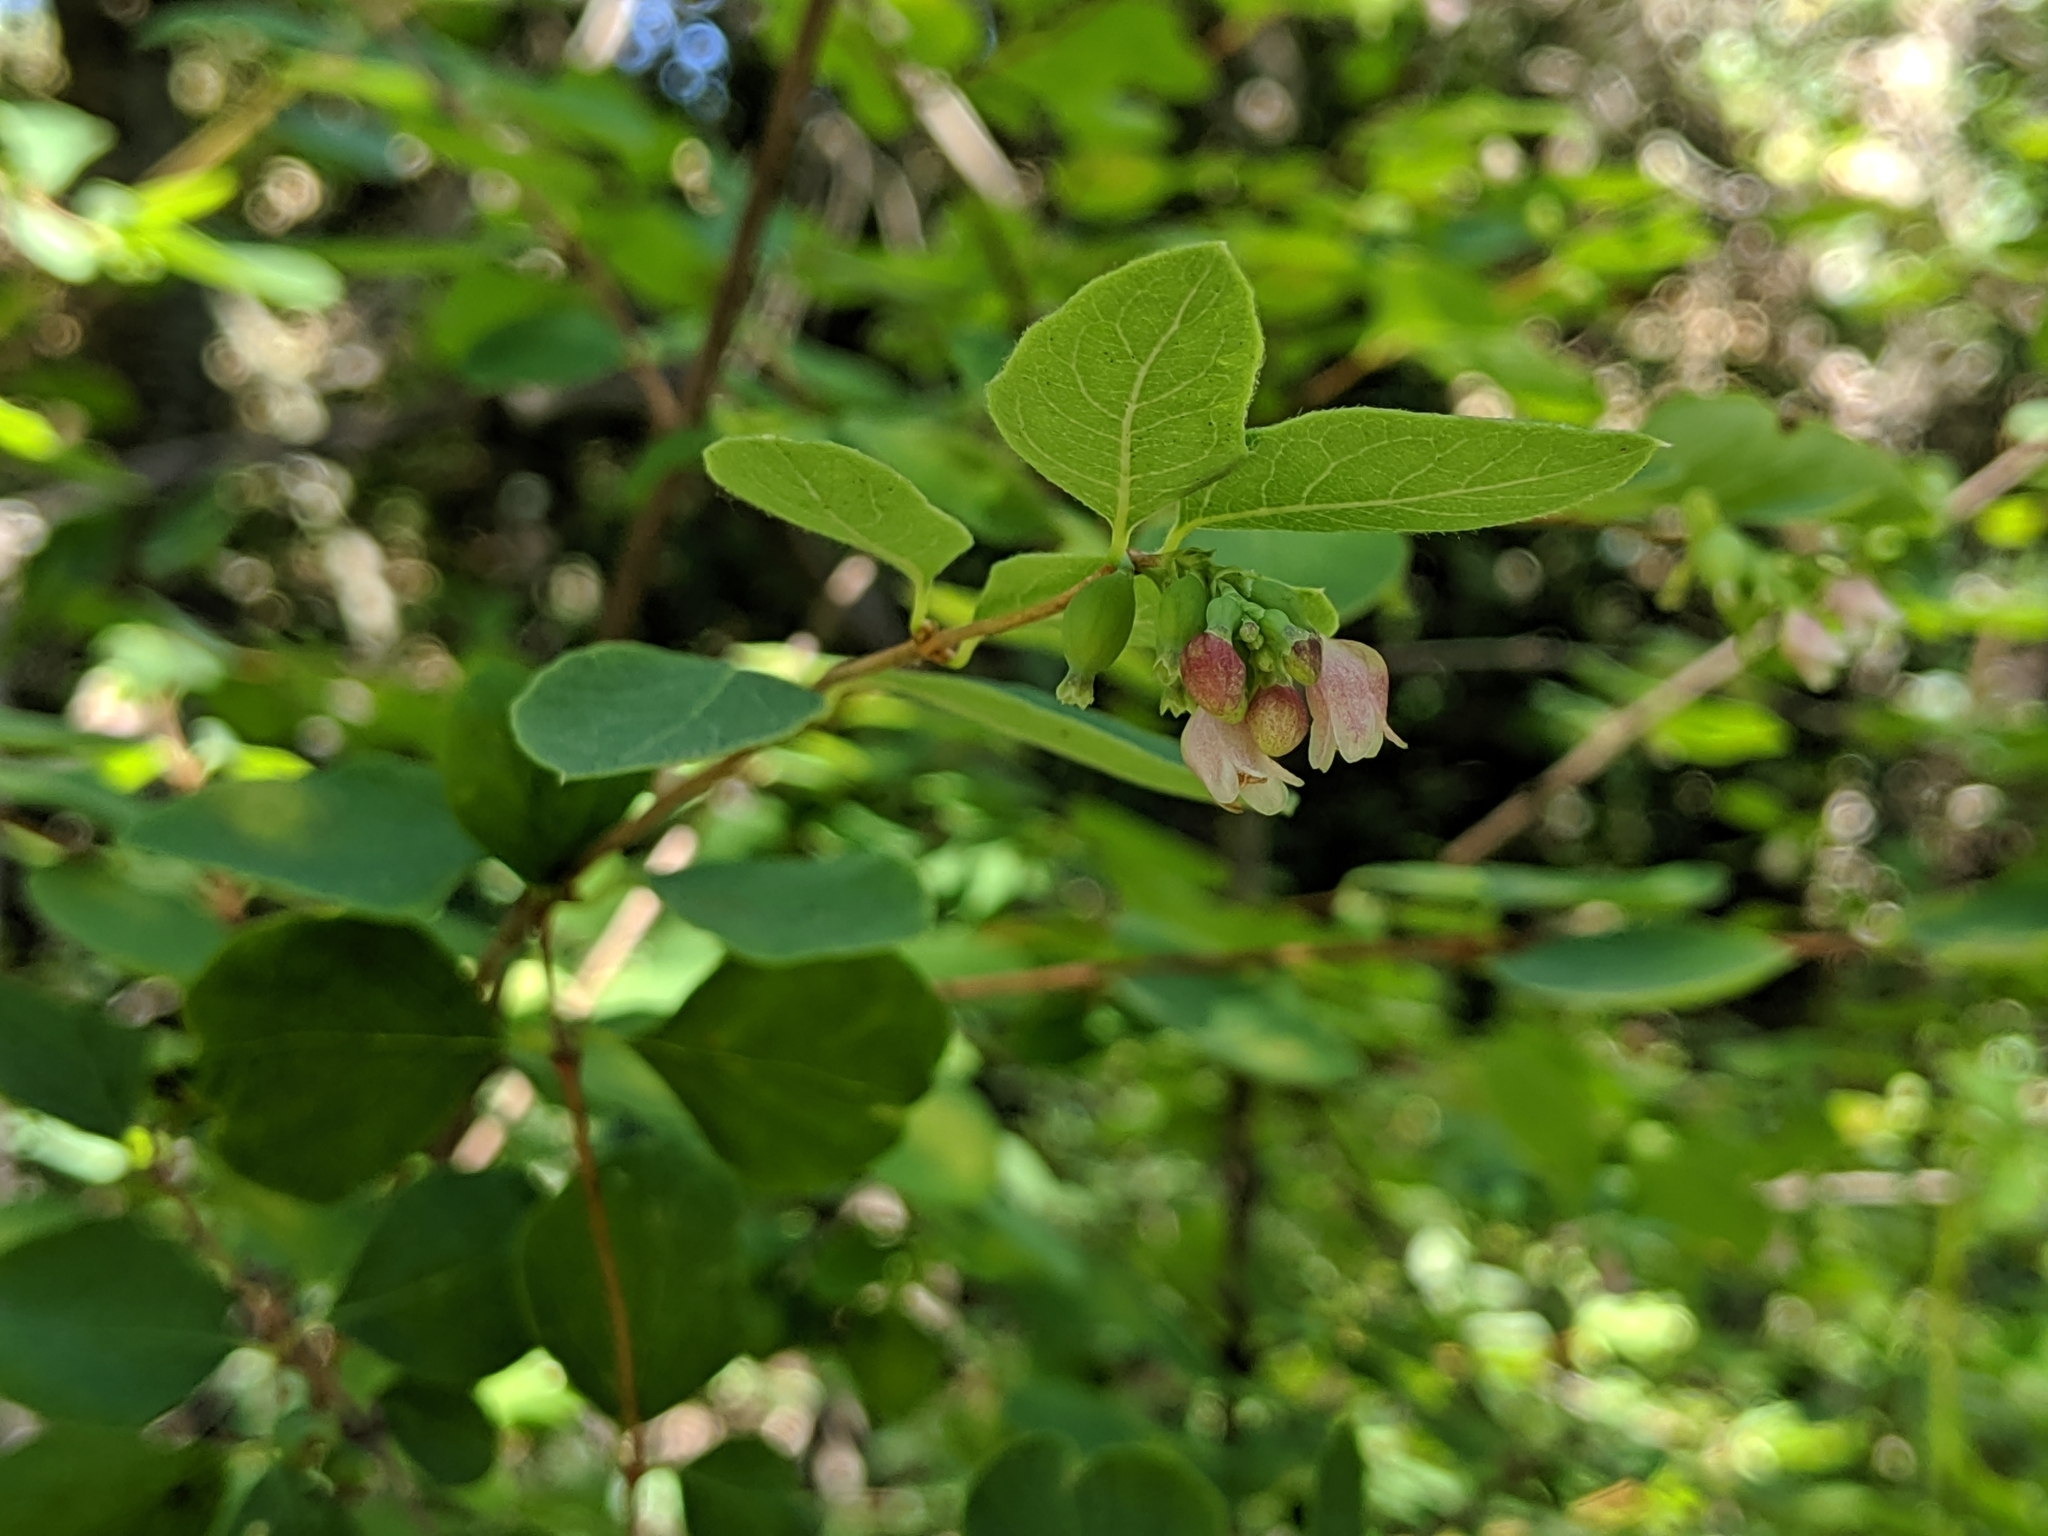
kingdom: Plantae
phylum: Tracheophyta
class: Magnoliopsida
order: Dipsacales
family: Caprifoliaceae
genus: Symphoricarpos
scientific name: Symphoricarpos albus
